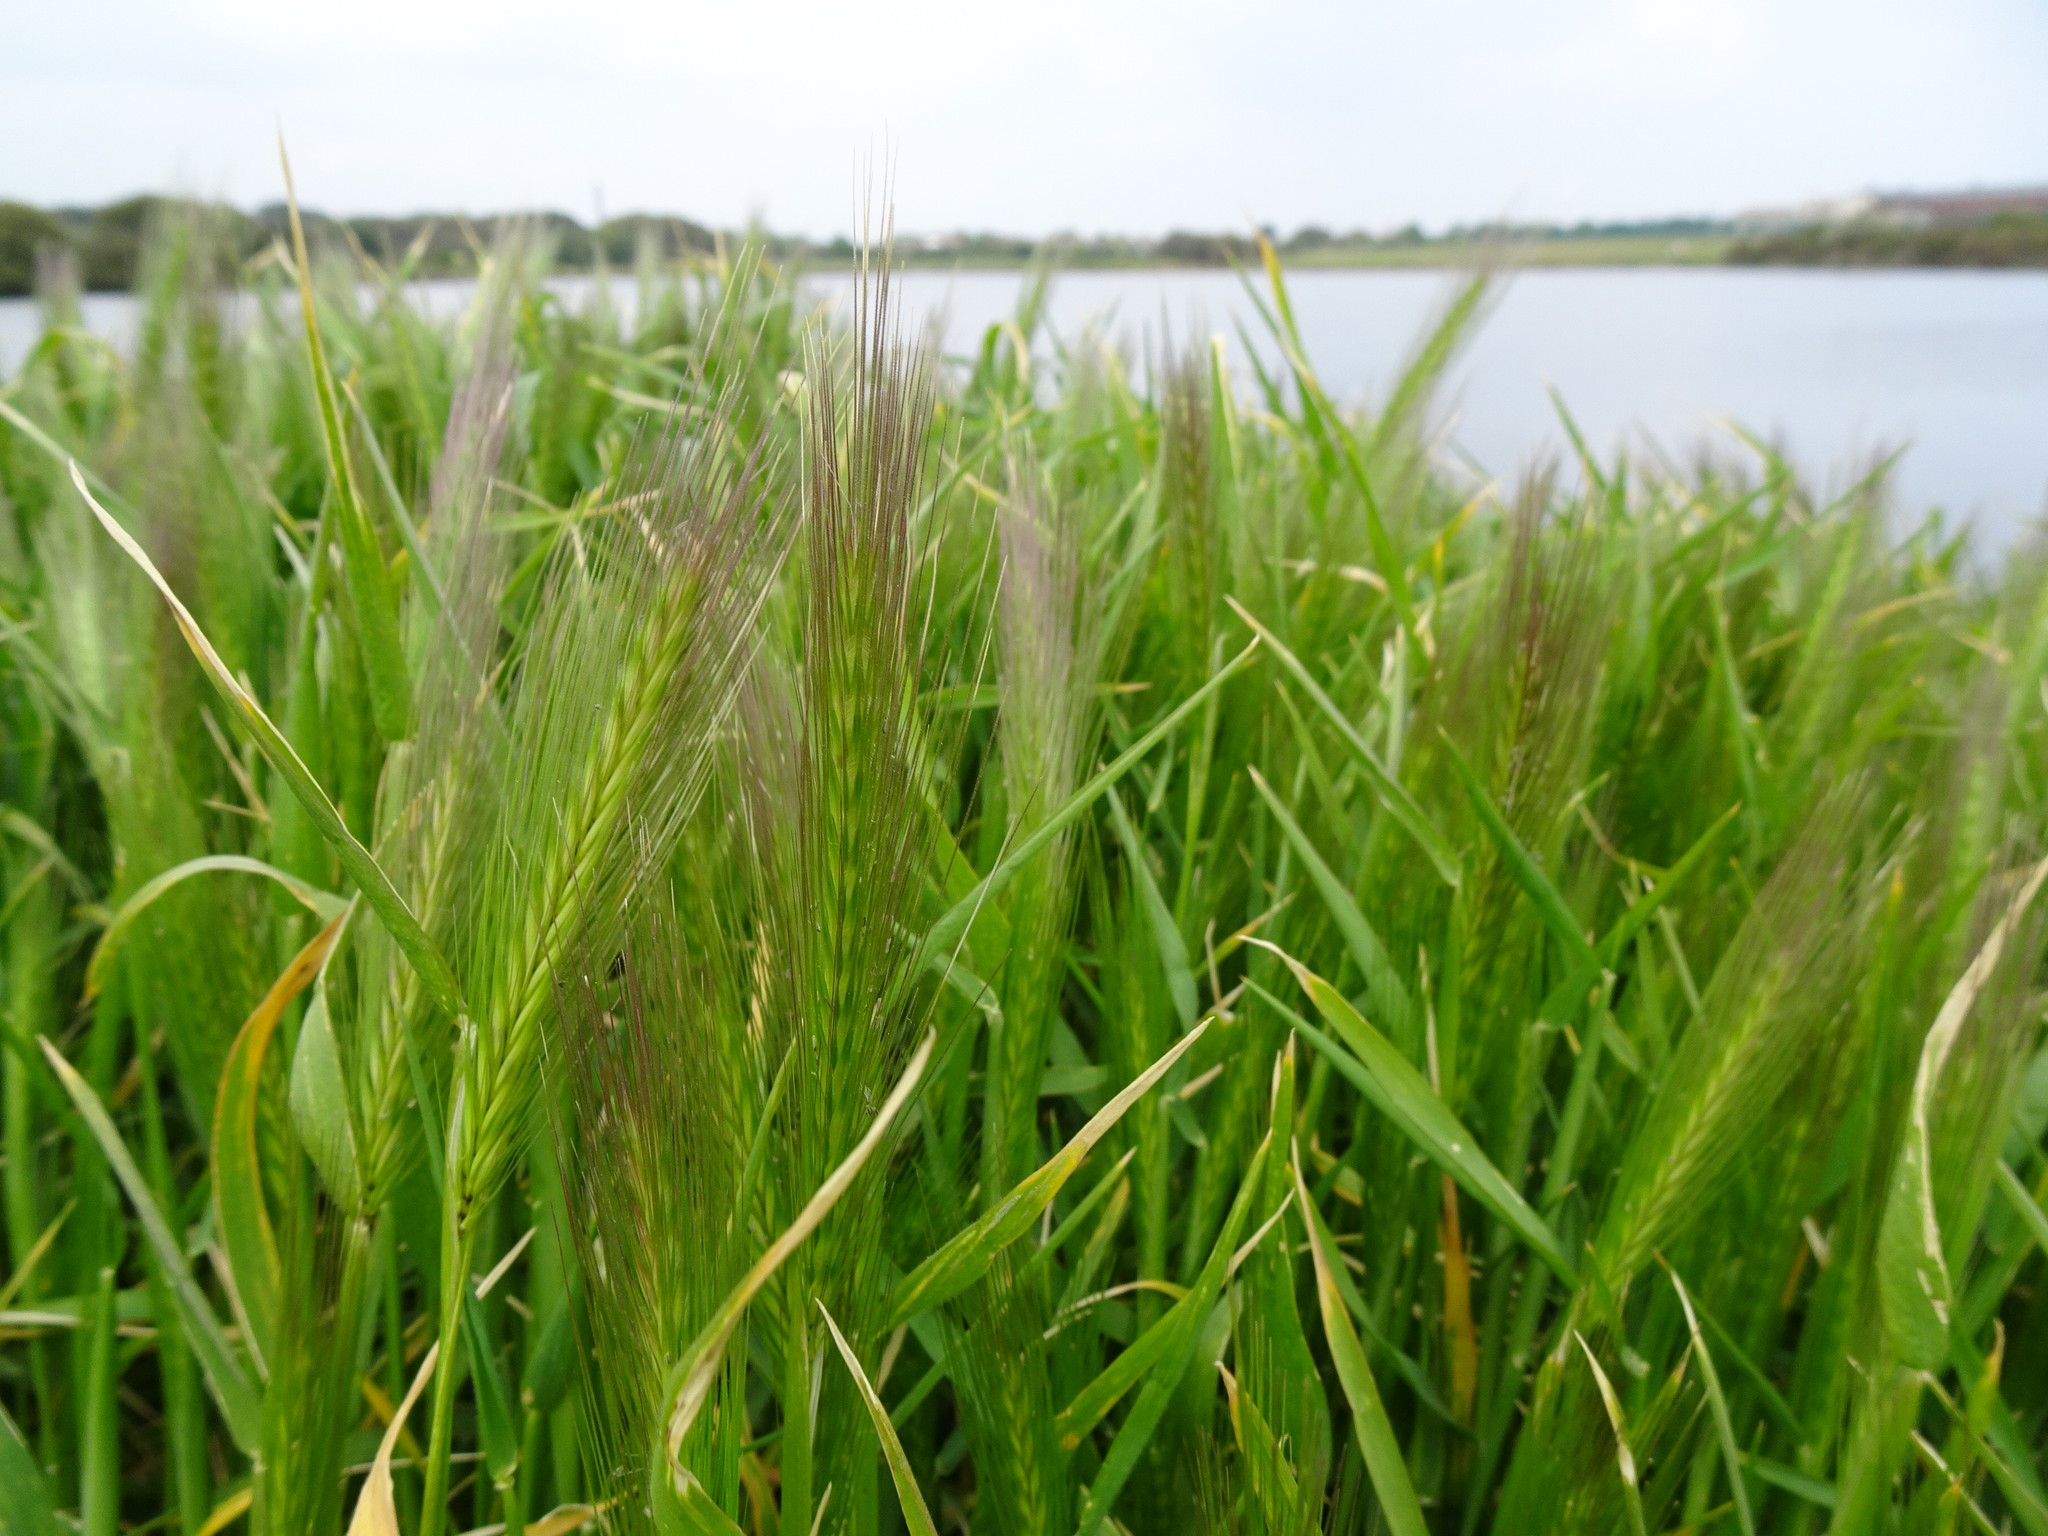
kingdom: Plantae
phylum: Tracheophyta
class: Liliopsida
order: Poales
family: Poaceae
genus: Hordeum
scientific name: Hordeum murinum
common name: Wall barley
